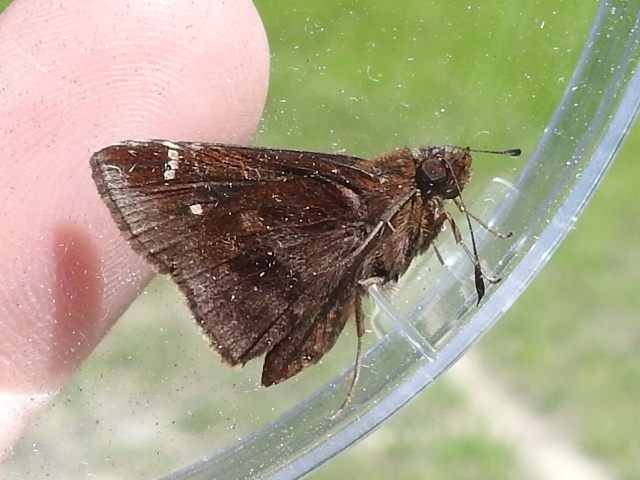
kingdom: Animalia
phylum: Arthropoda
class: Insecta
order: Lepidoptera
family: Hesperiidae
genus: Lerema
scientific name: Lerema accius
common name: Clouded skipper
